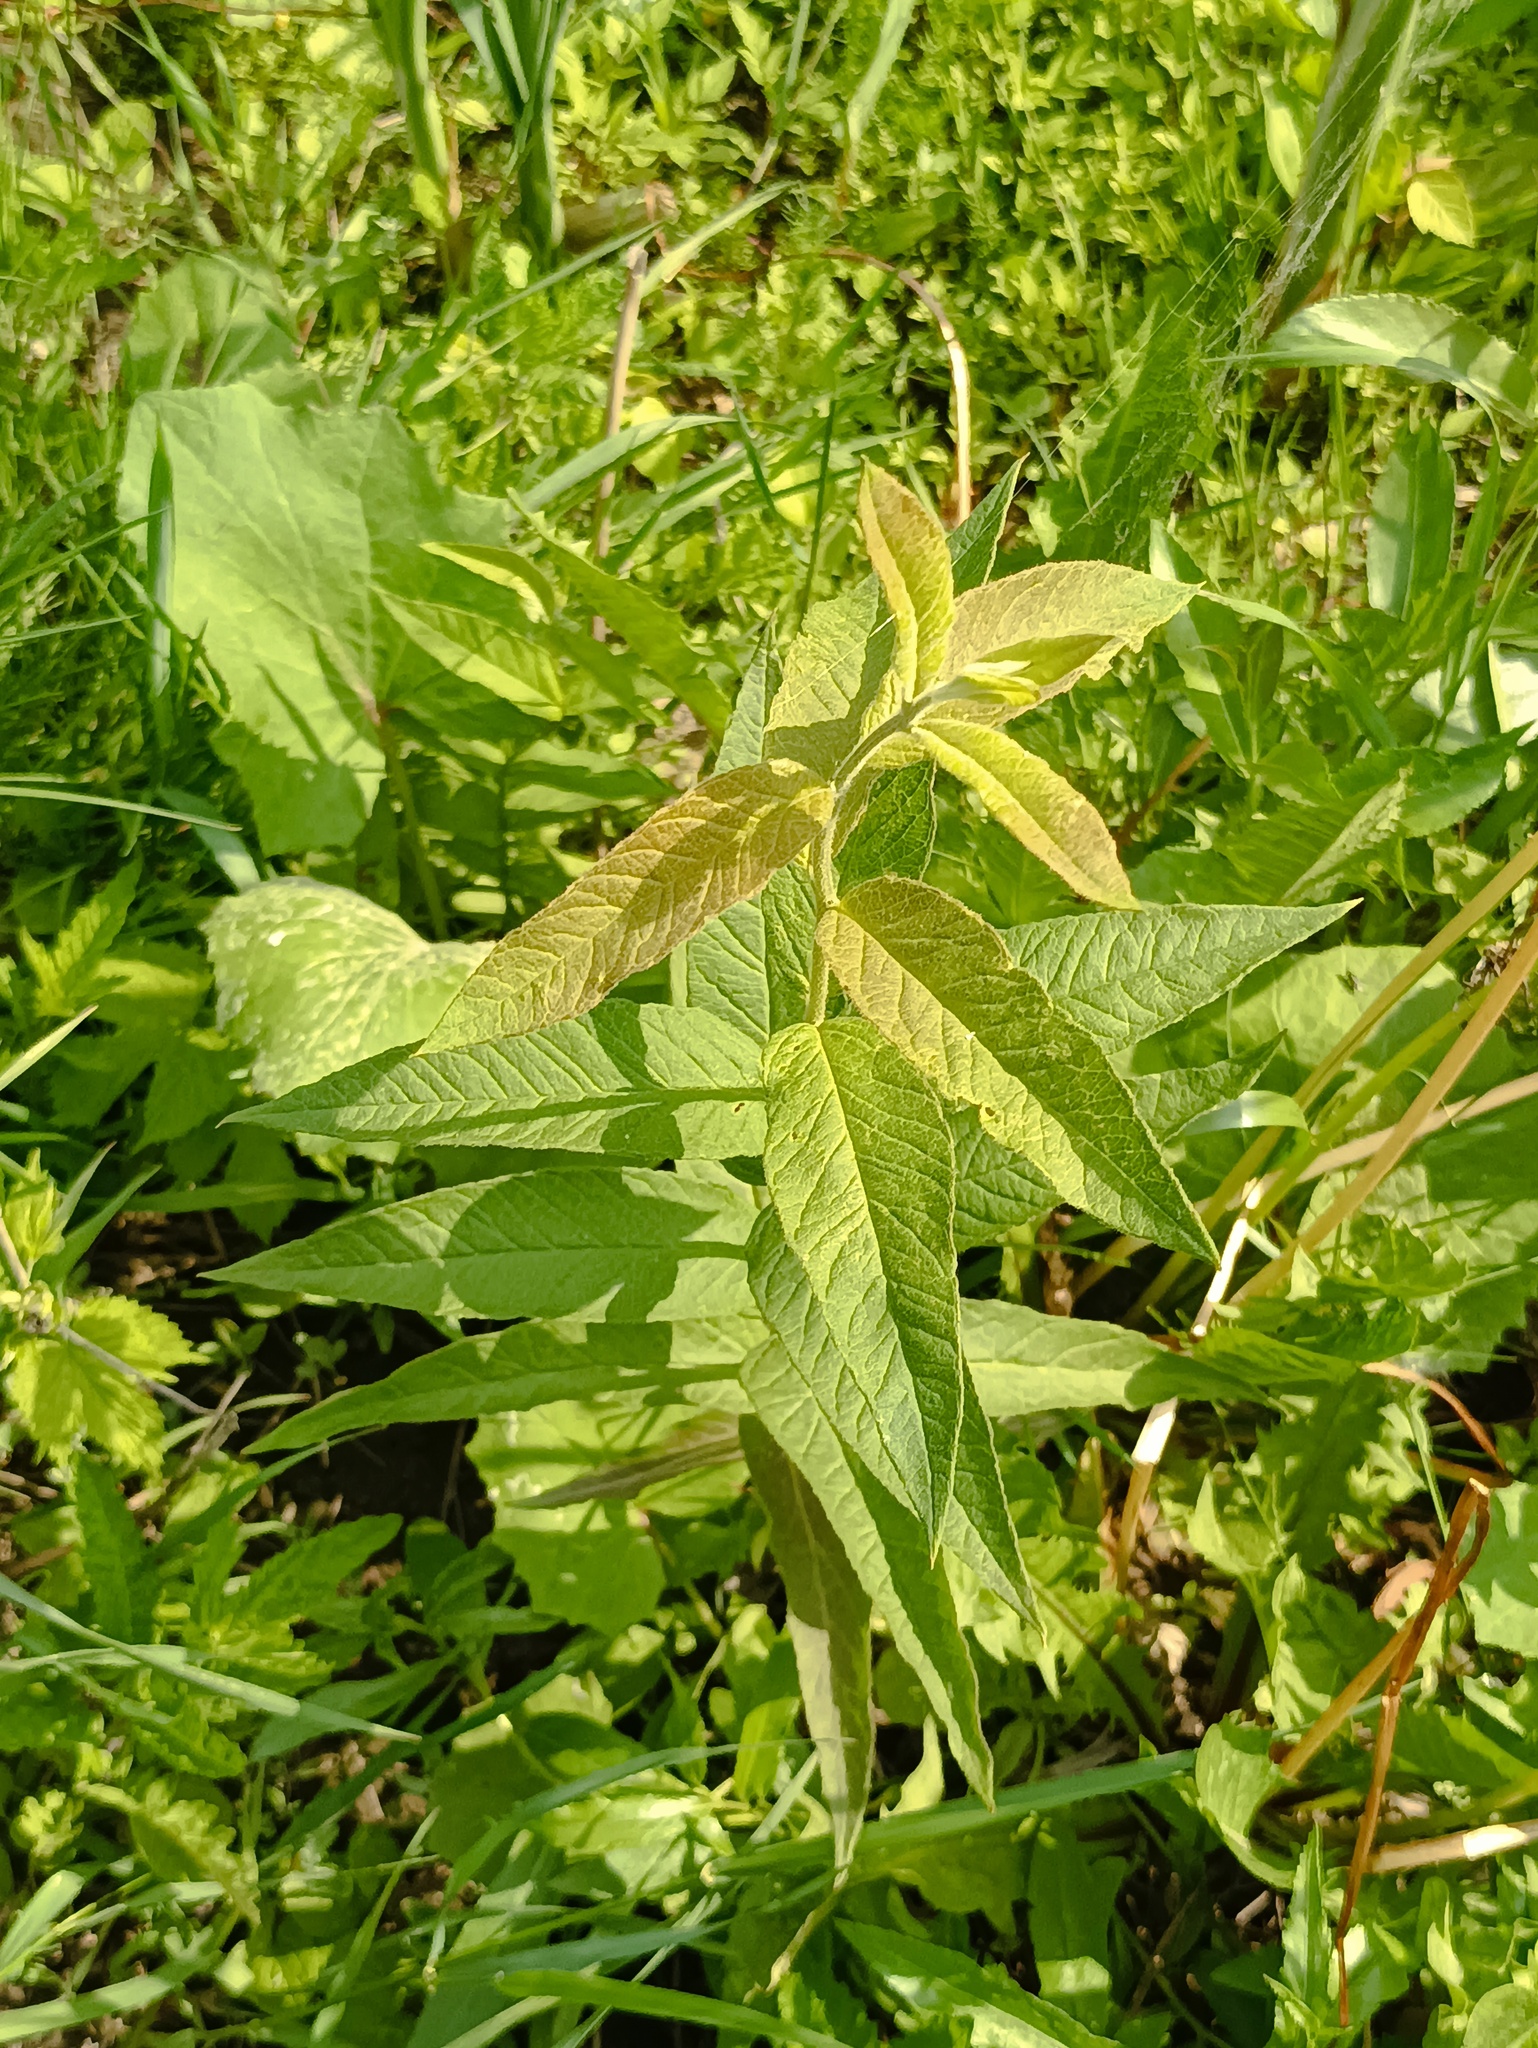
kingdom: Plantae
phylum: Tracheophyta
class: Magnoliopsida
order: Ericales
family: Primulaceae
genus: Lysimachia
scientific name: Lysimachia vulgaris
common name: Yellow loosestrife
